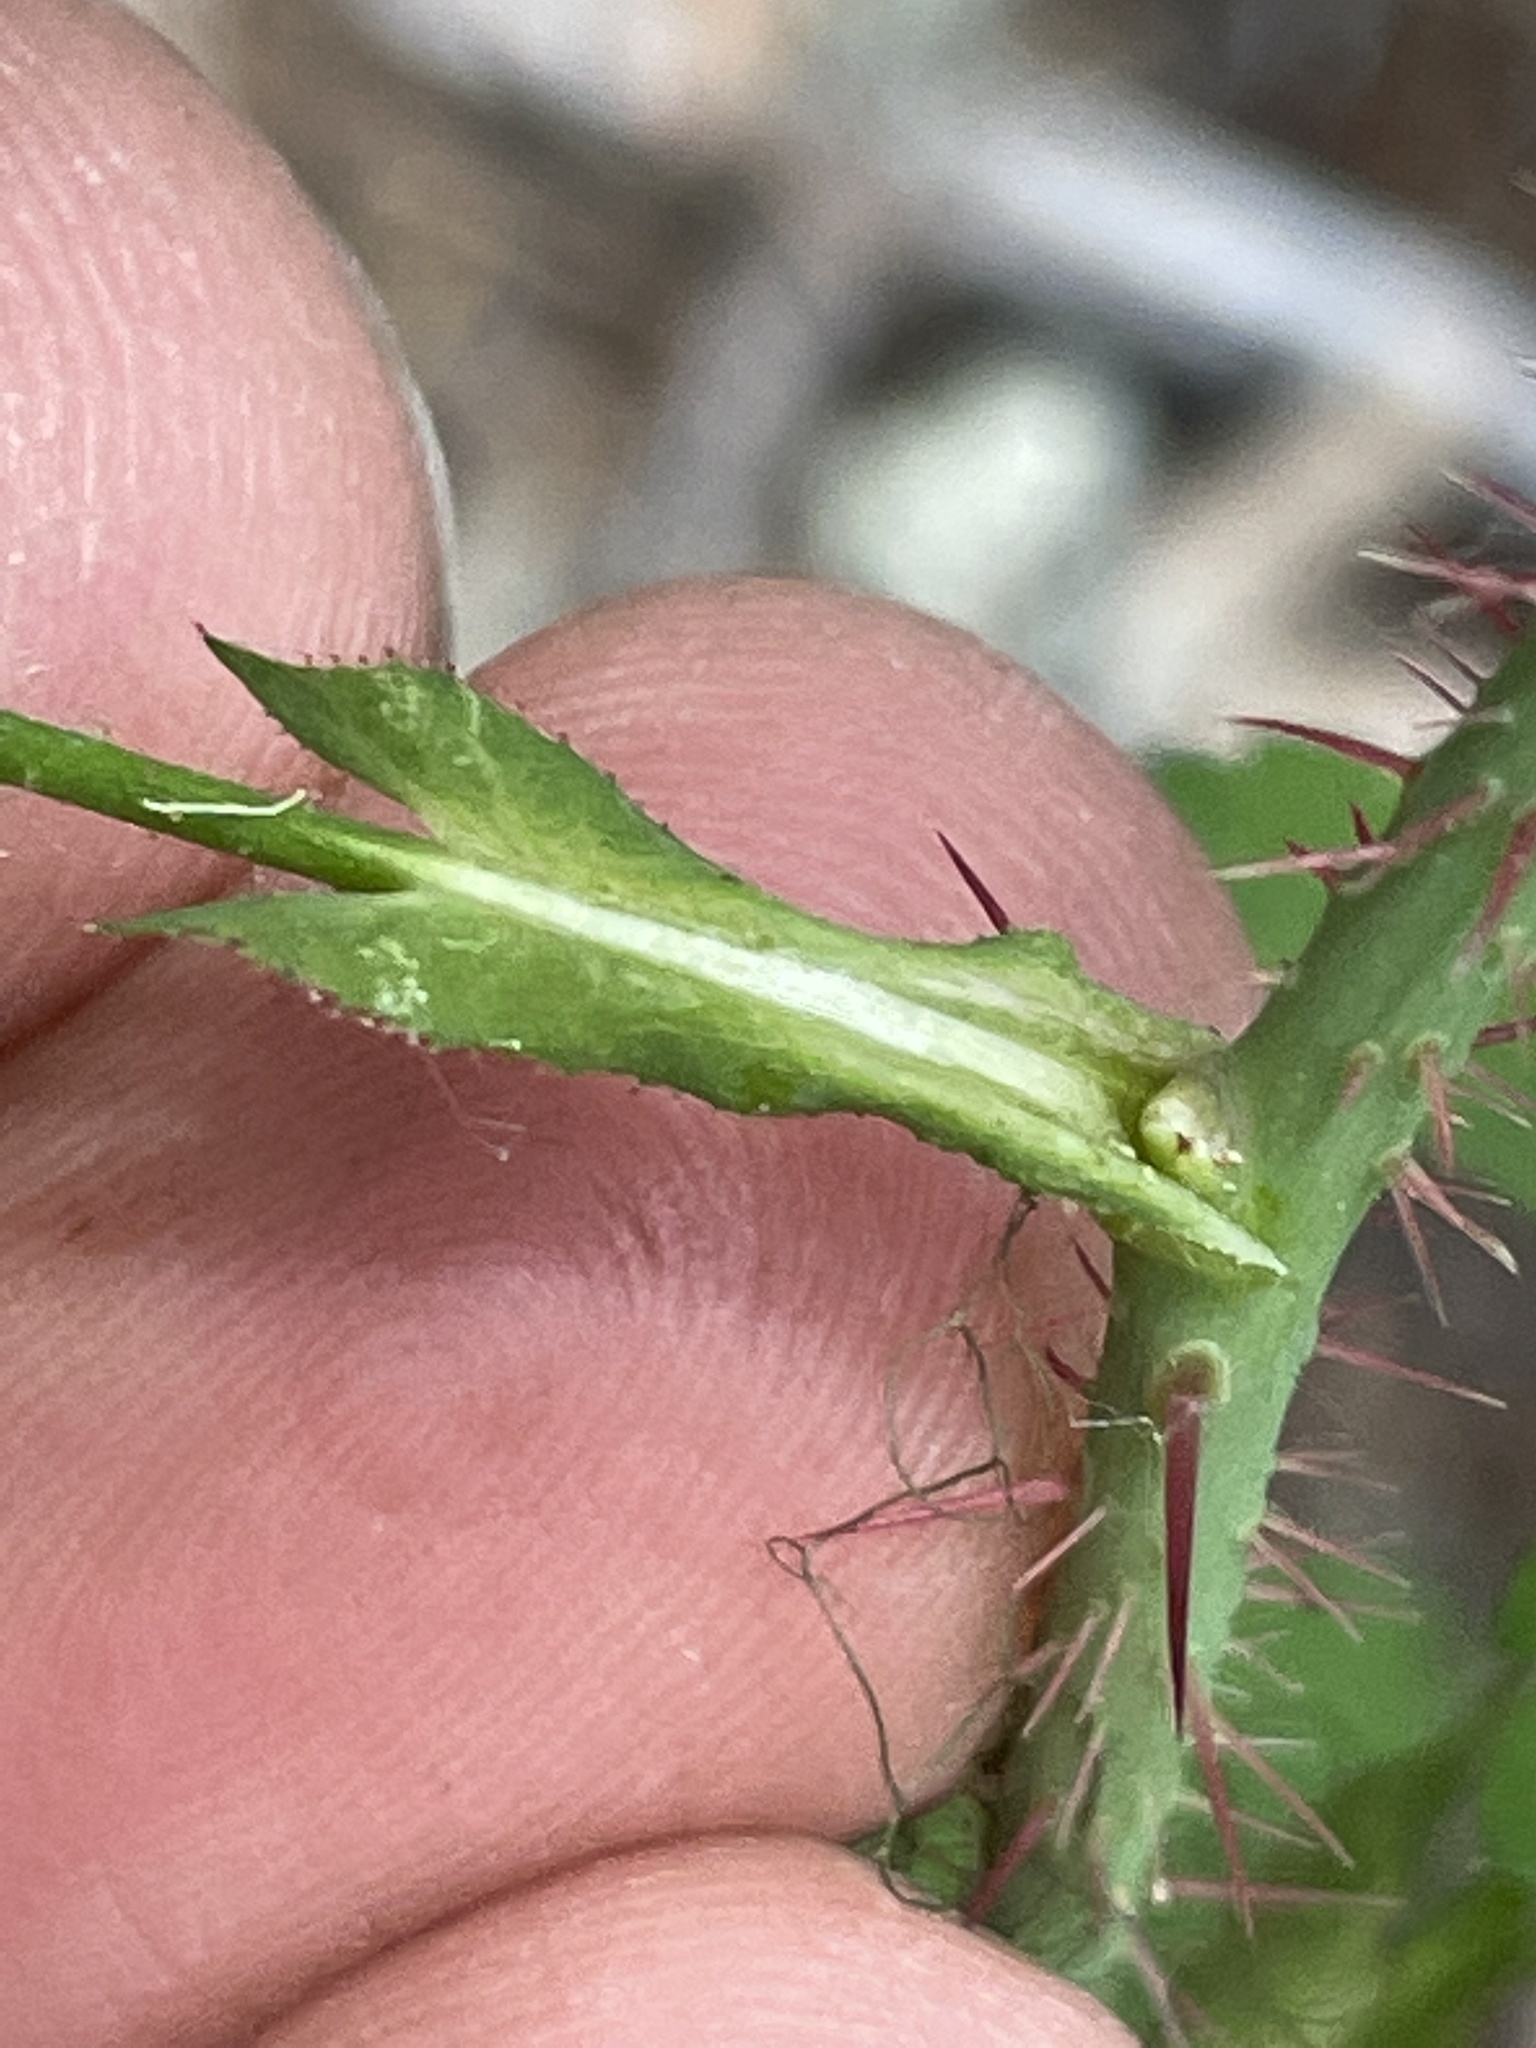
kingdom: Plantae
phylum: Tracheophyta
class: Magnoliopsida
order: Rosales
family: Rosaceae
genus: Rosa
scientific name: Rosa gymnocarpa
